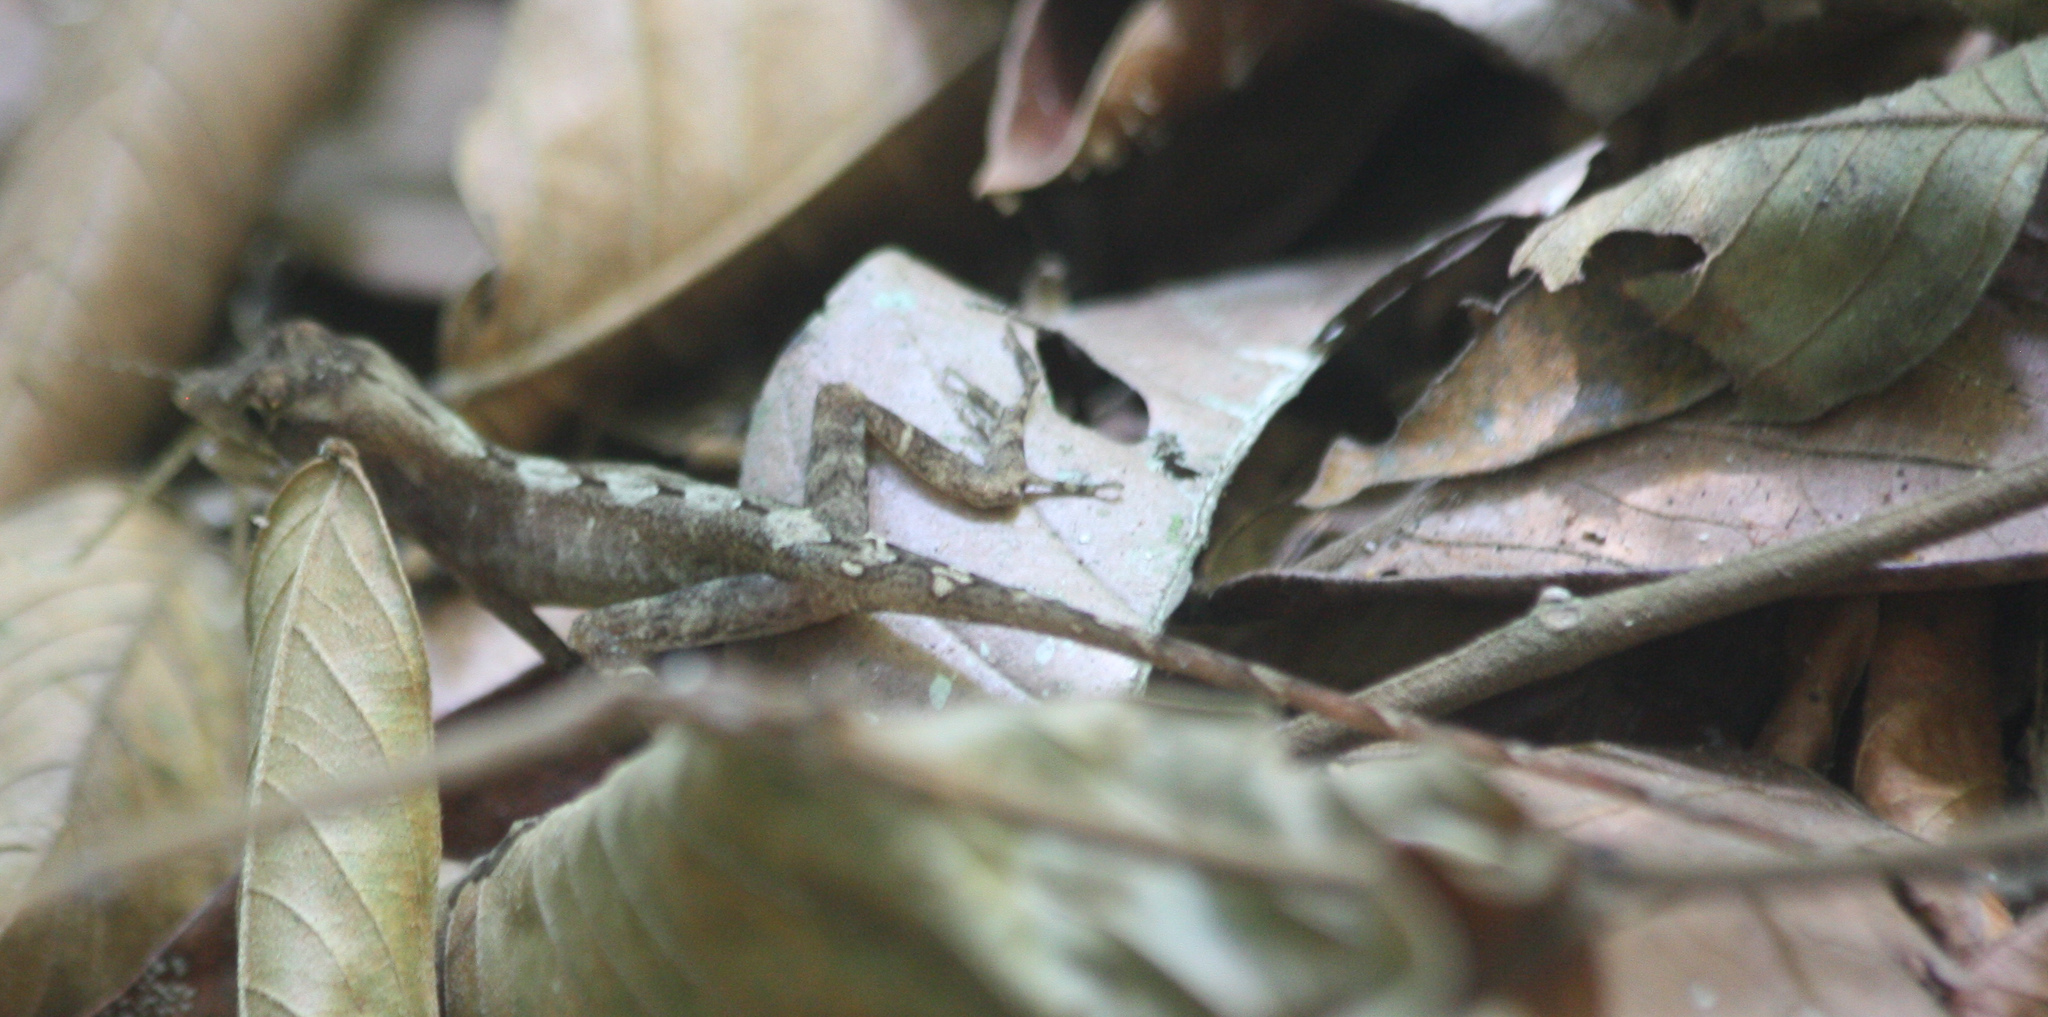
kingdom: Animalia
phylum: Chordata
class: Squamata
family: Dactyloidae
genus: Anolis
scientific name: Anolis osa
